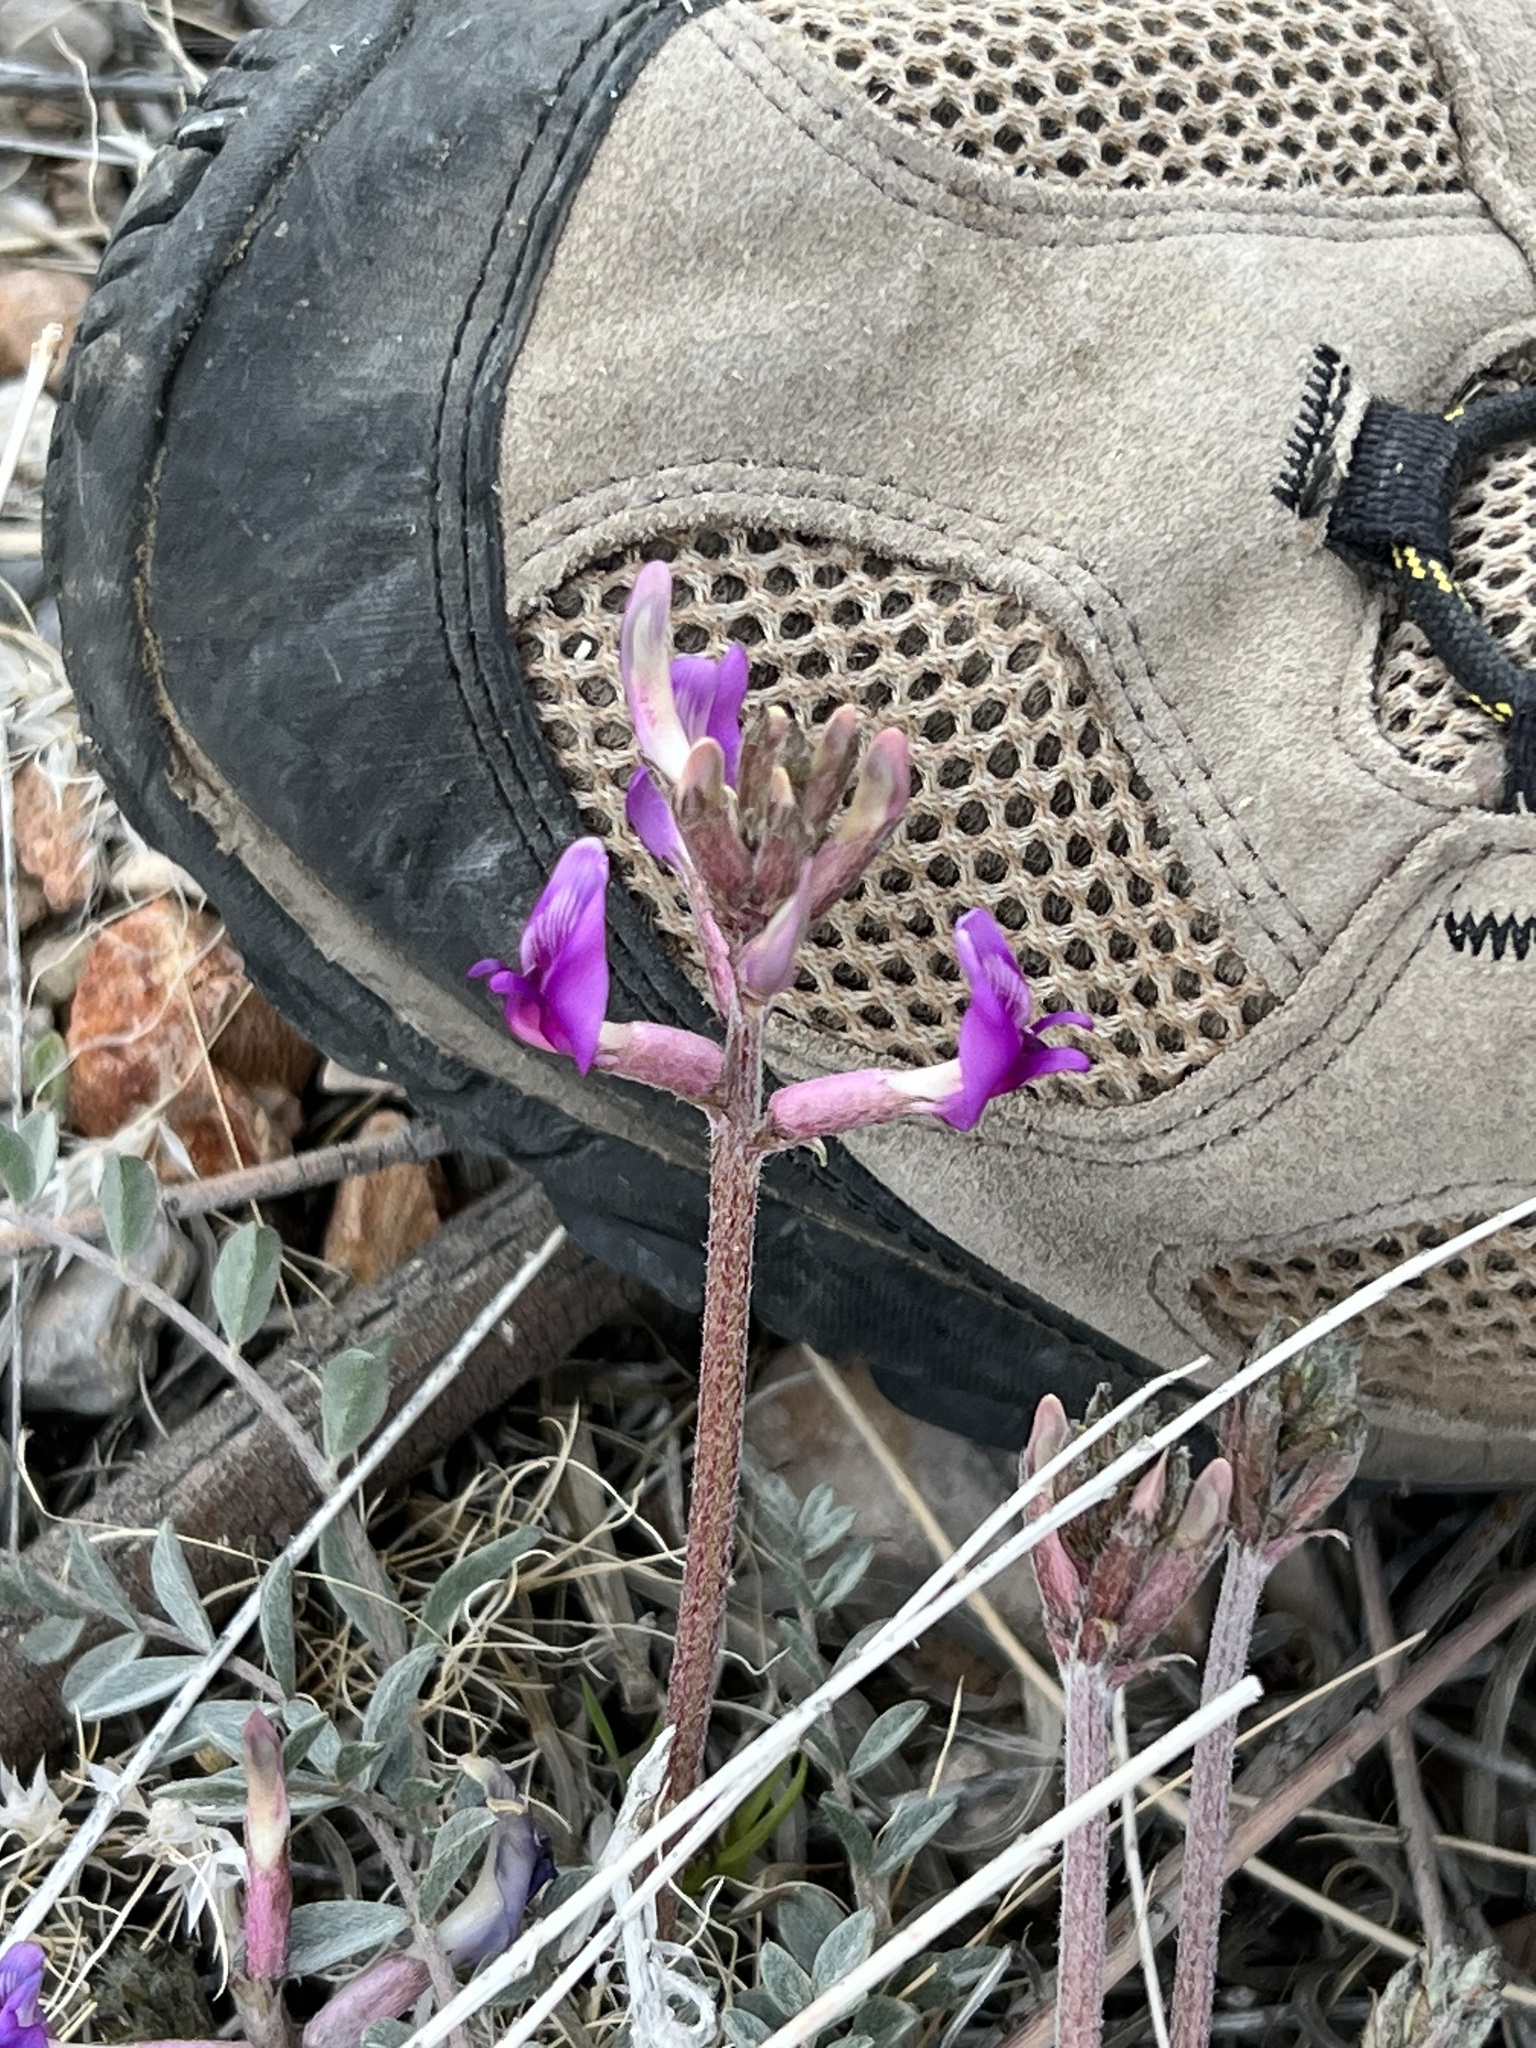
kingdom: Plantae
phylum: Tracheophyta
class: Magnoliopsida
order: Fabales
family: Fabaceae
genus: Astragalus
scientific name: Astragalus amphioxys
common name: Crescent milk-vetch
